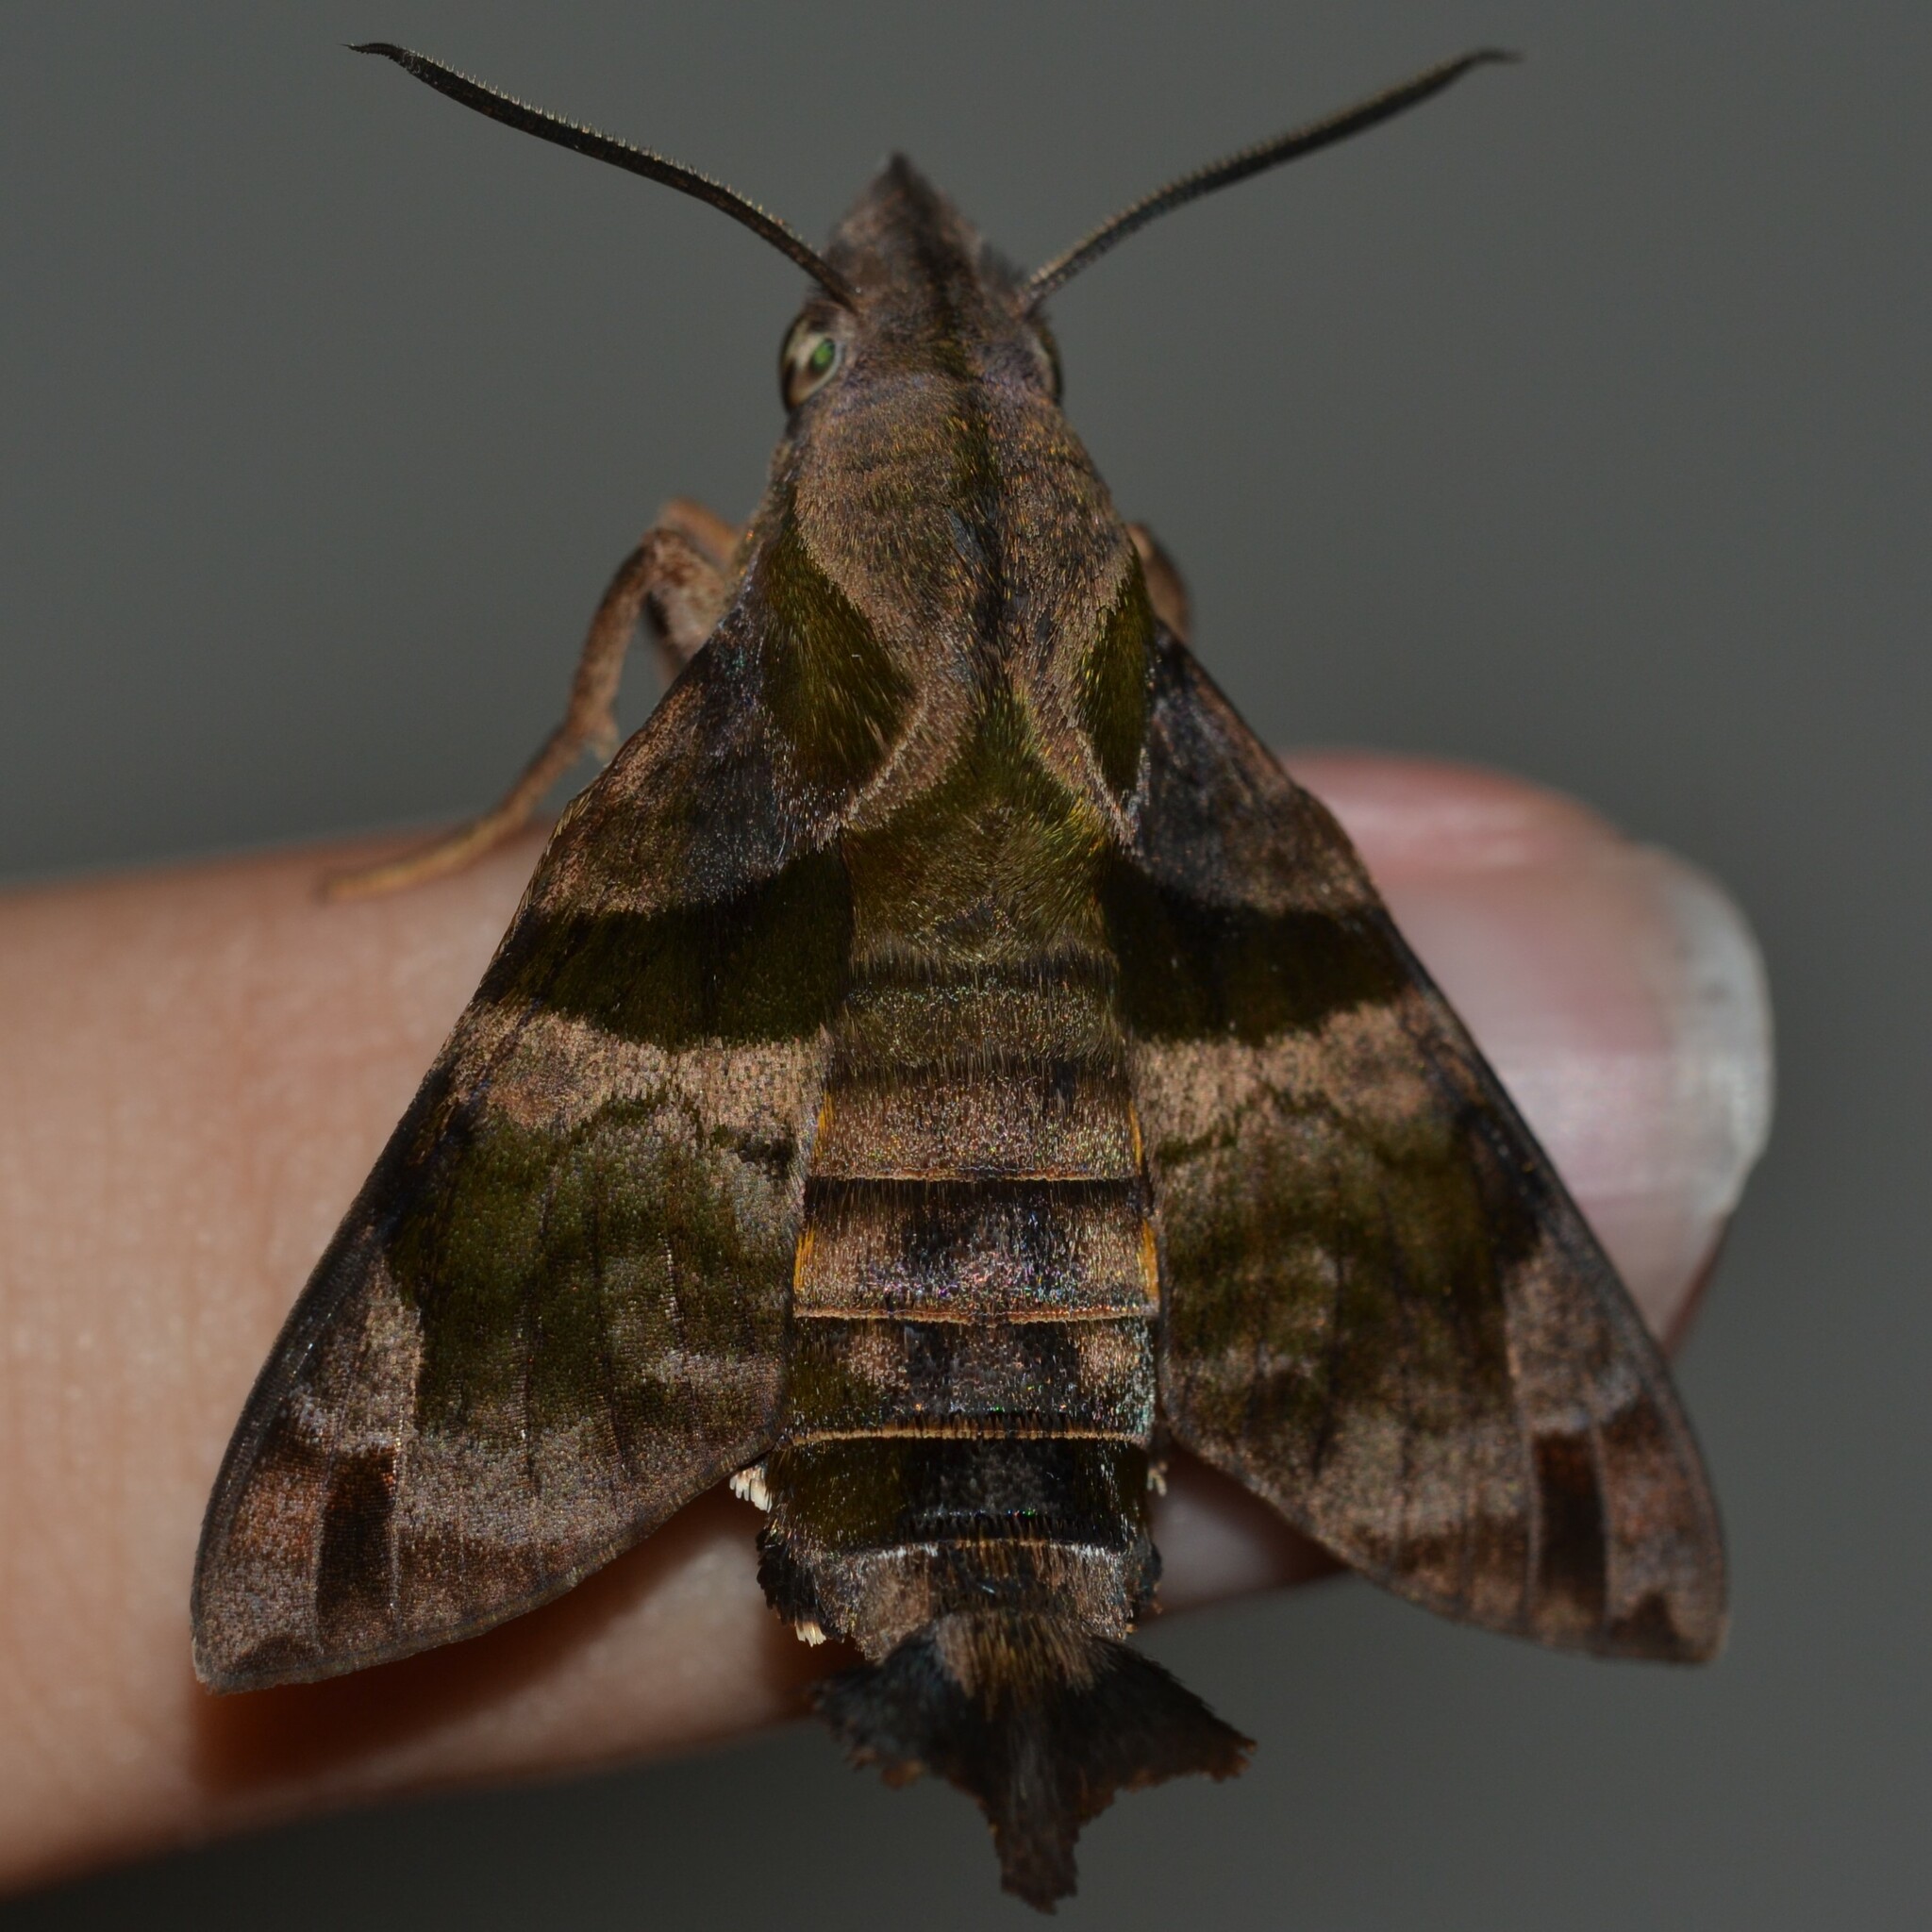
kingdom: Animalia
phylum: Arthropoda
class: Insecta
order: Lepidoptera
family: Sphingidae
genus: Macroglossum
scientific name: Macroglossum pyrrhosticta
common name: Hummingbird hawk moth
